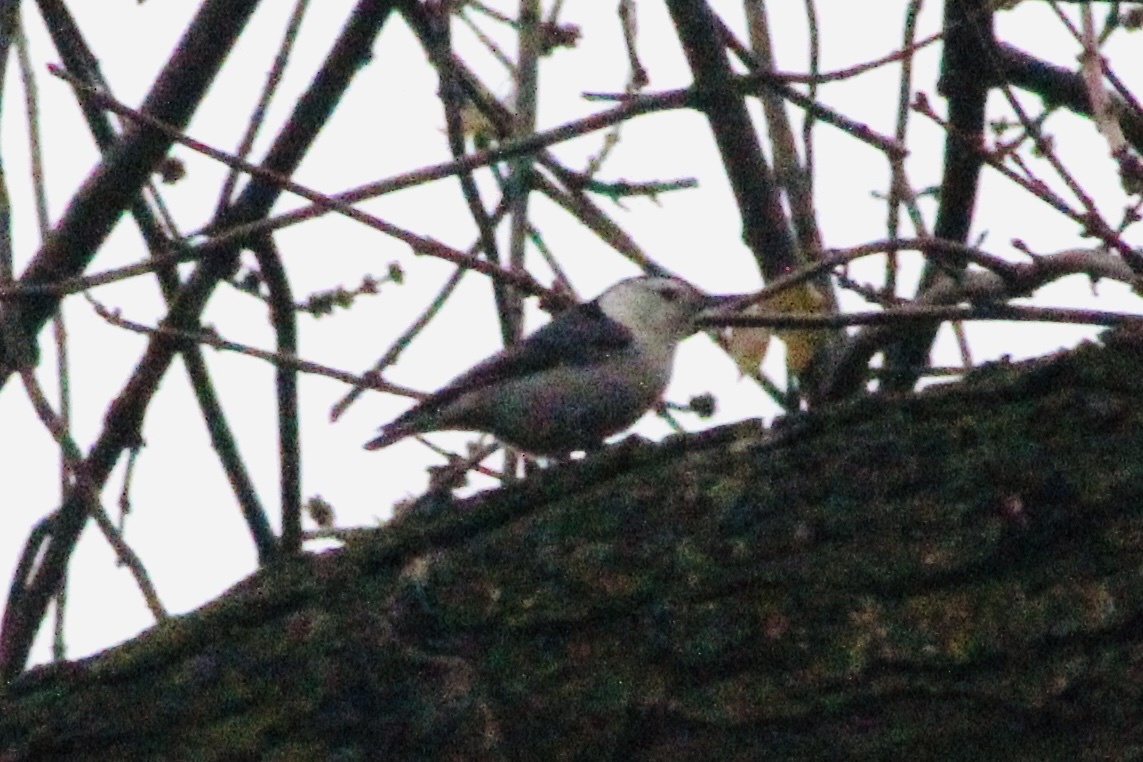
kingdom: Animalia
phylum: Chordata
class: Aves
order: Passeriformes
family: Sittidae
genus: Sitta
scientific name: Sitta carolinensis
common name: White-breasted nuthatch
